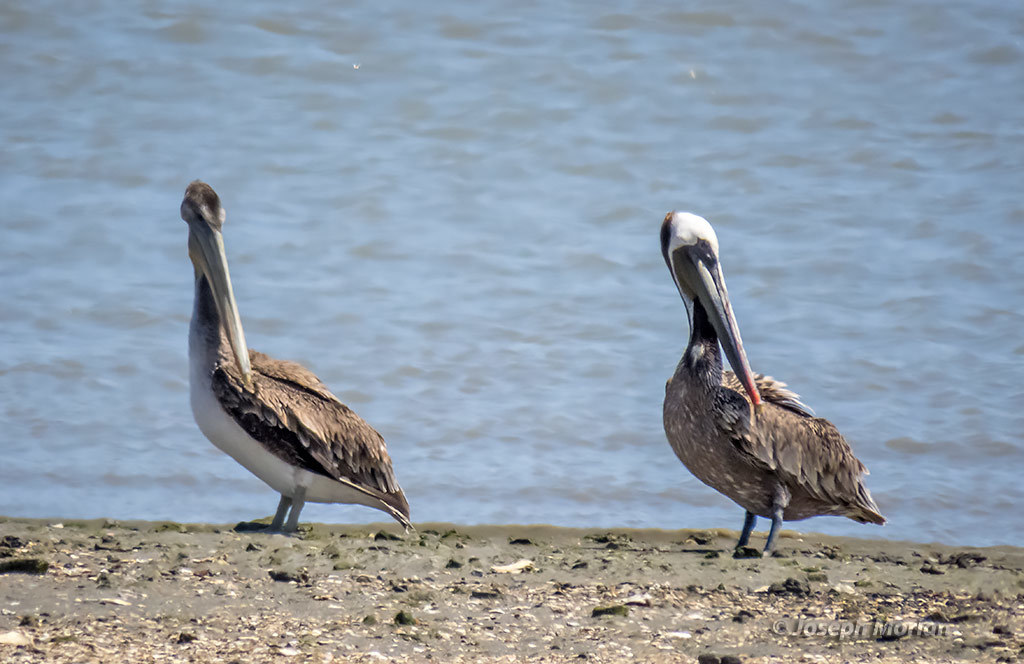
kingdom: Animalia
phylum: Chordata
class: Aves
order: Pelecaniformes
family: Pelecanidae
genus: Pelecanus
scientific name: Pelecanus occidentalis
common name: Brown pelican
